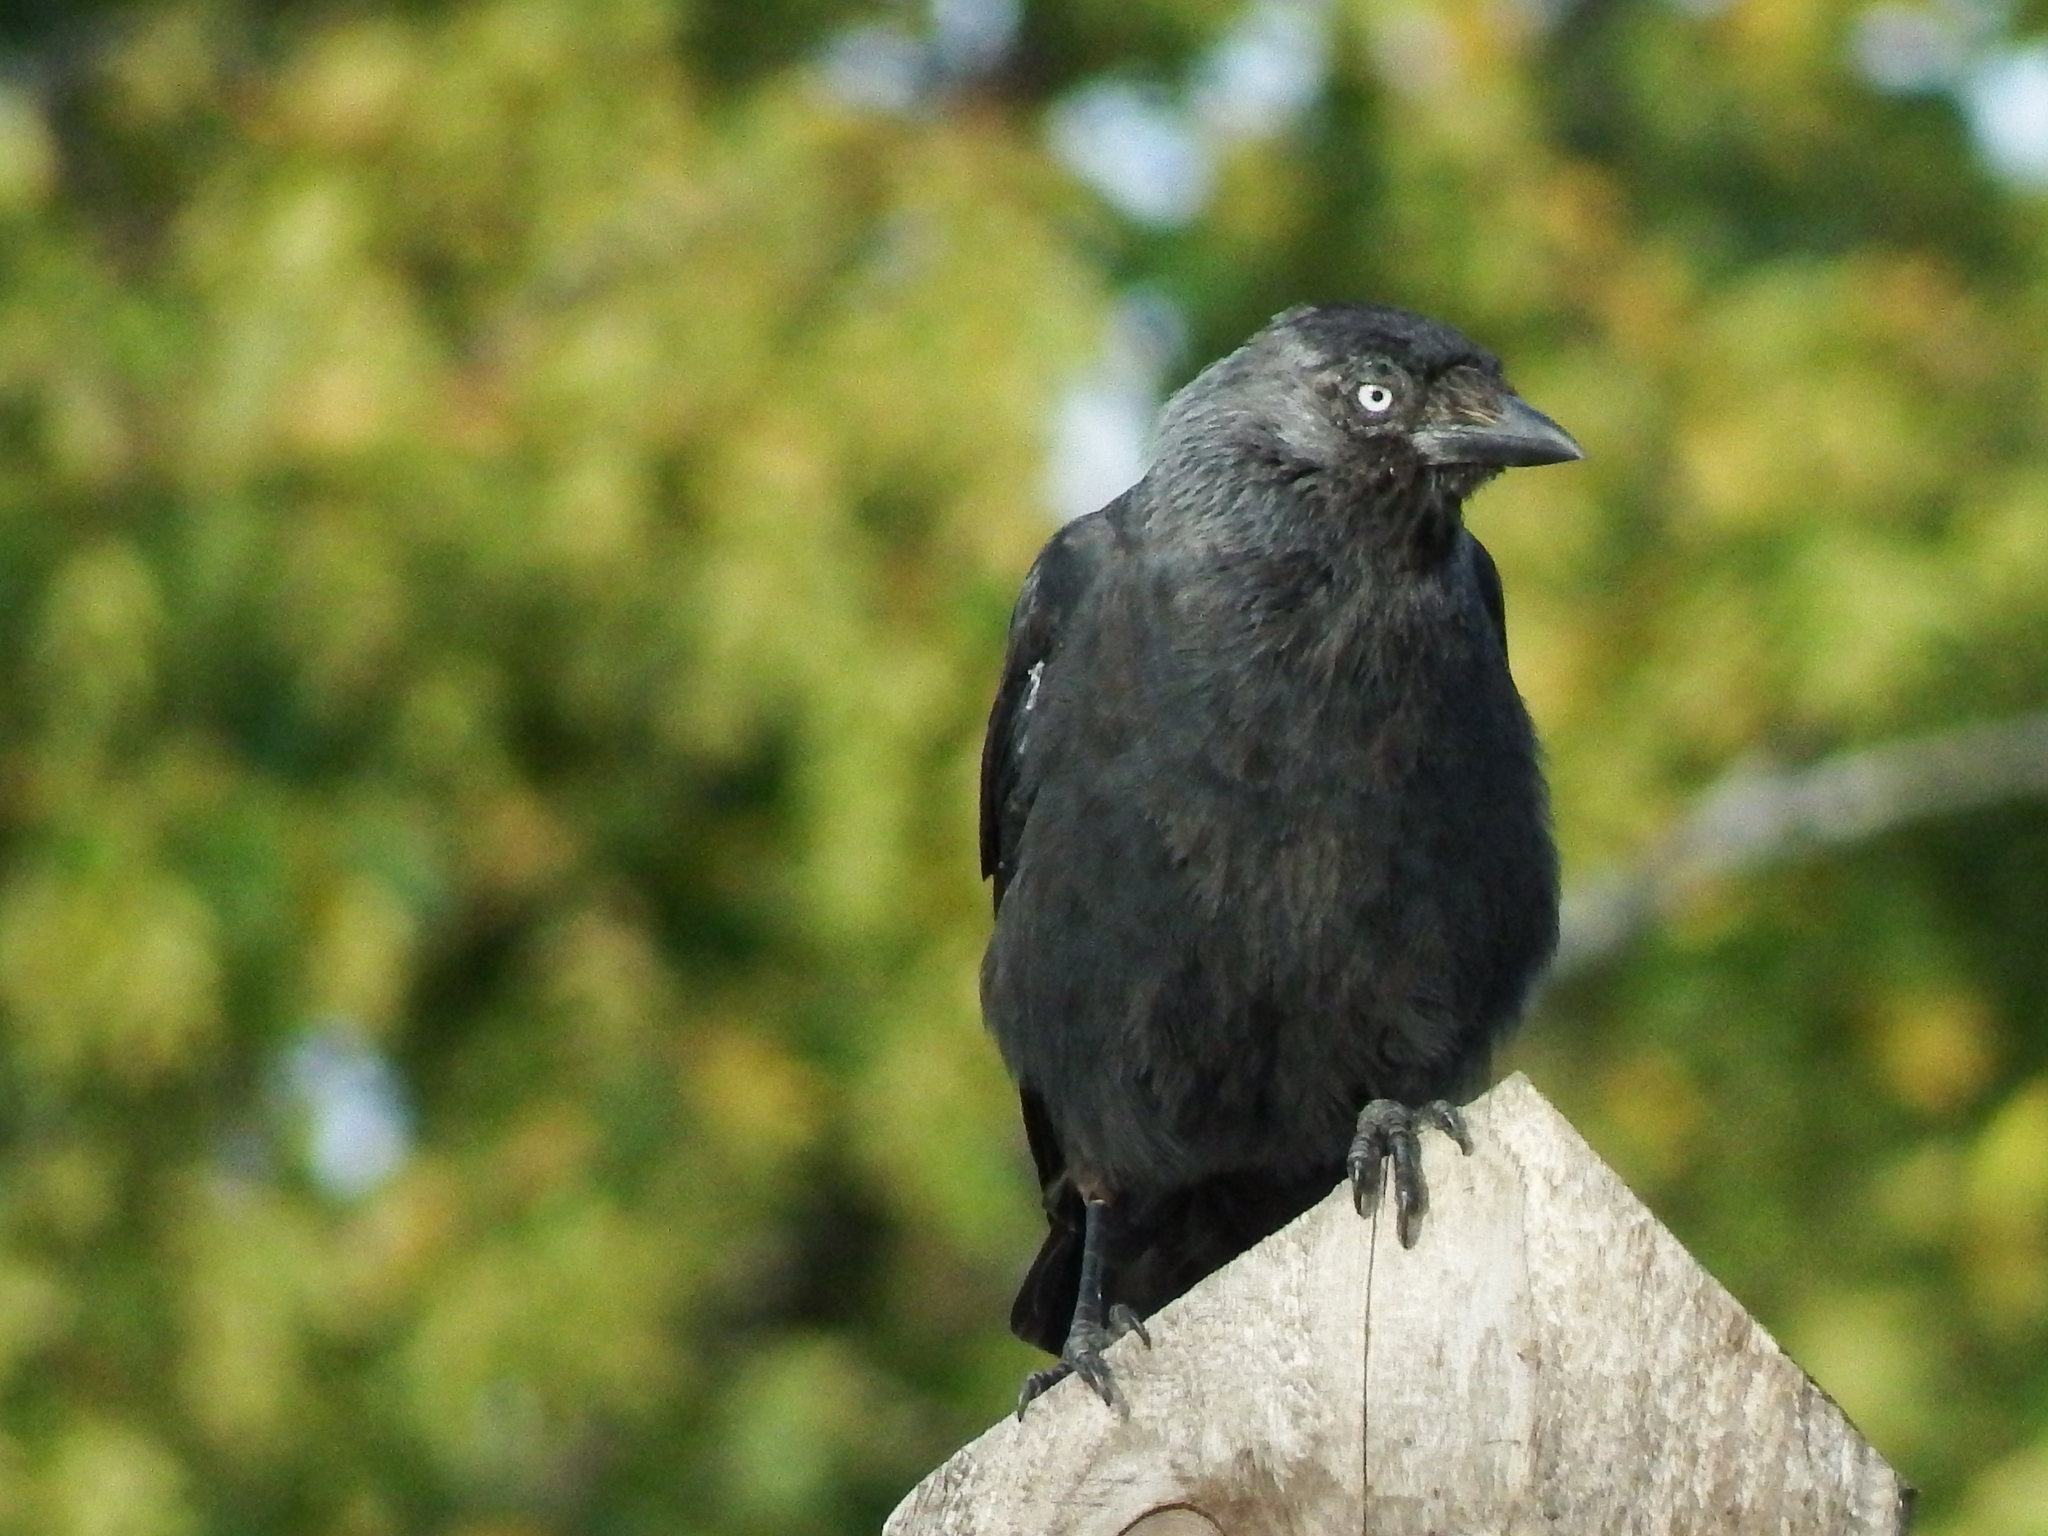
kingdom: Animalia
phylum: Chordata
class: Aves
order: Passeriformes
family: Corvidae
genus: Coloeus
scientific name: Coloeus monedula
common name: Western jackdaw
